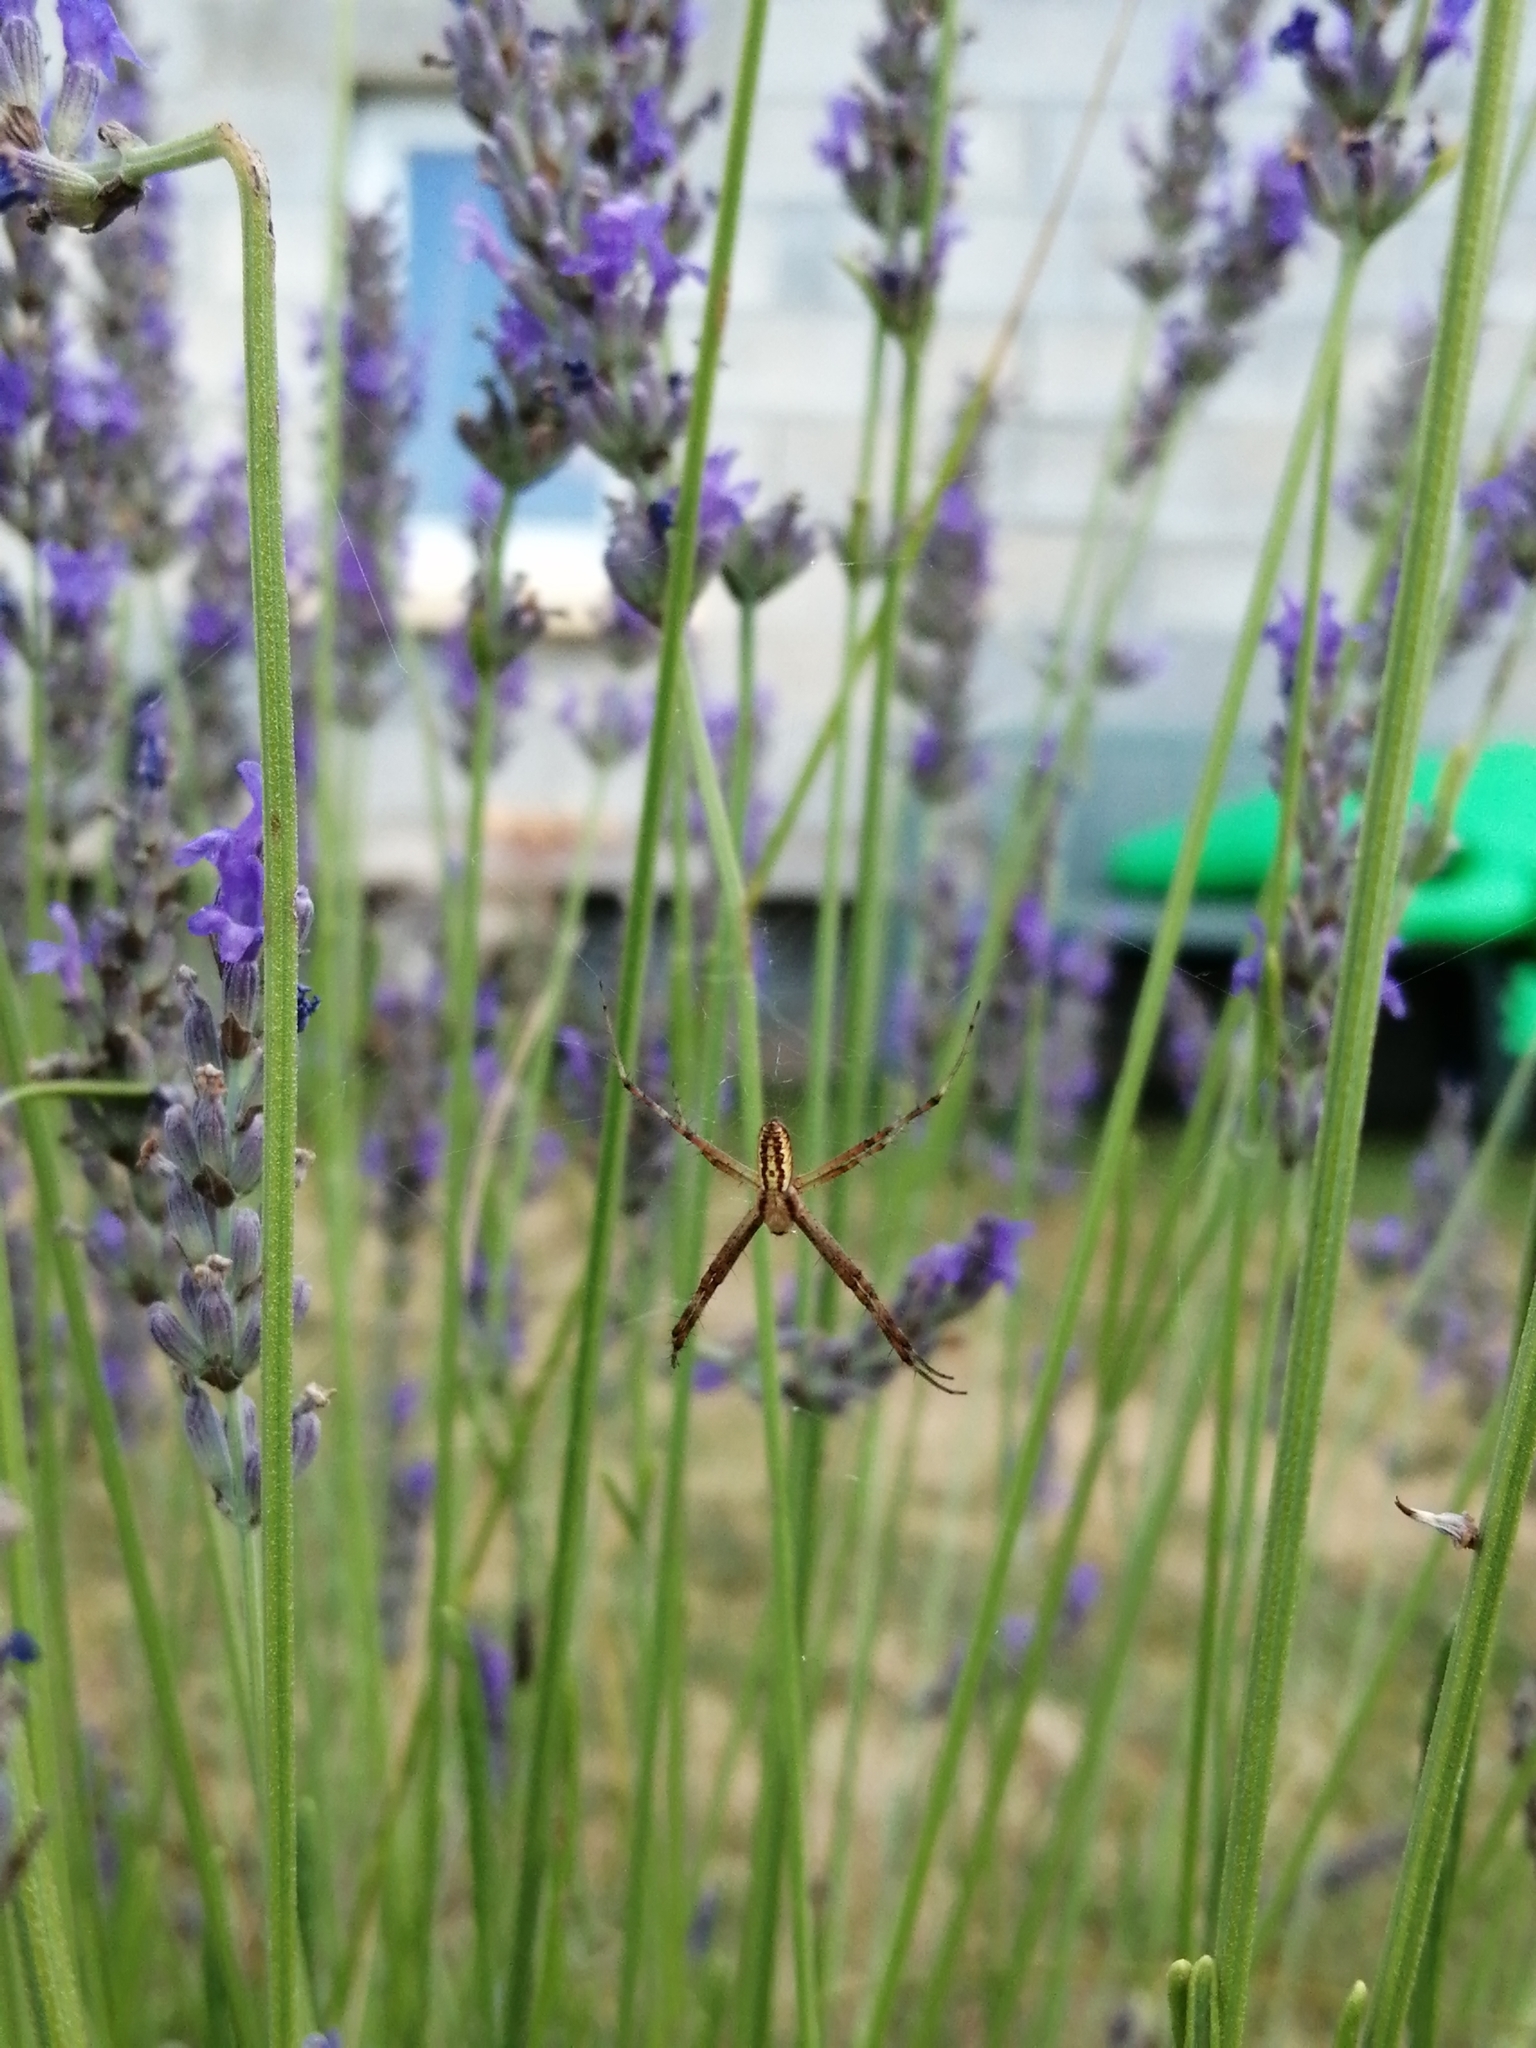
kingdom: Animalia
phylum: Arthropoda
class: Arachnida
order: Araneae
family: Araneidae
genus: Argiope
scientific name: Argiope bruennichi
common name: Wasp spider
